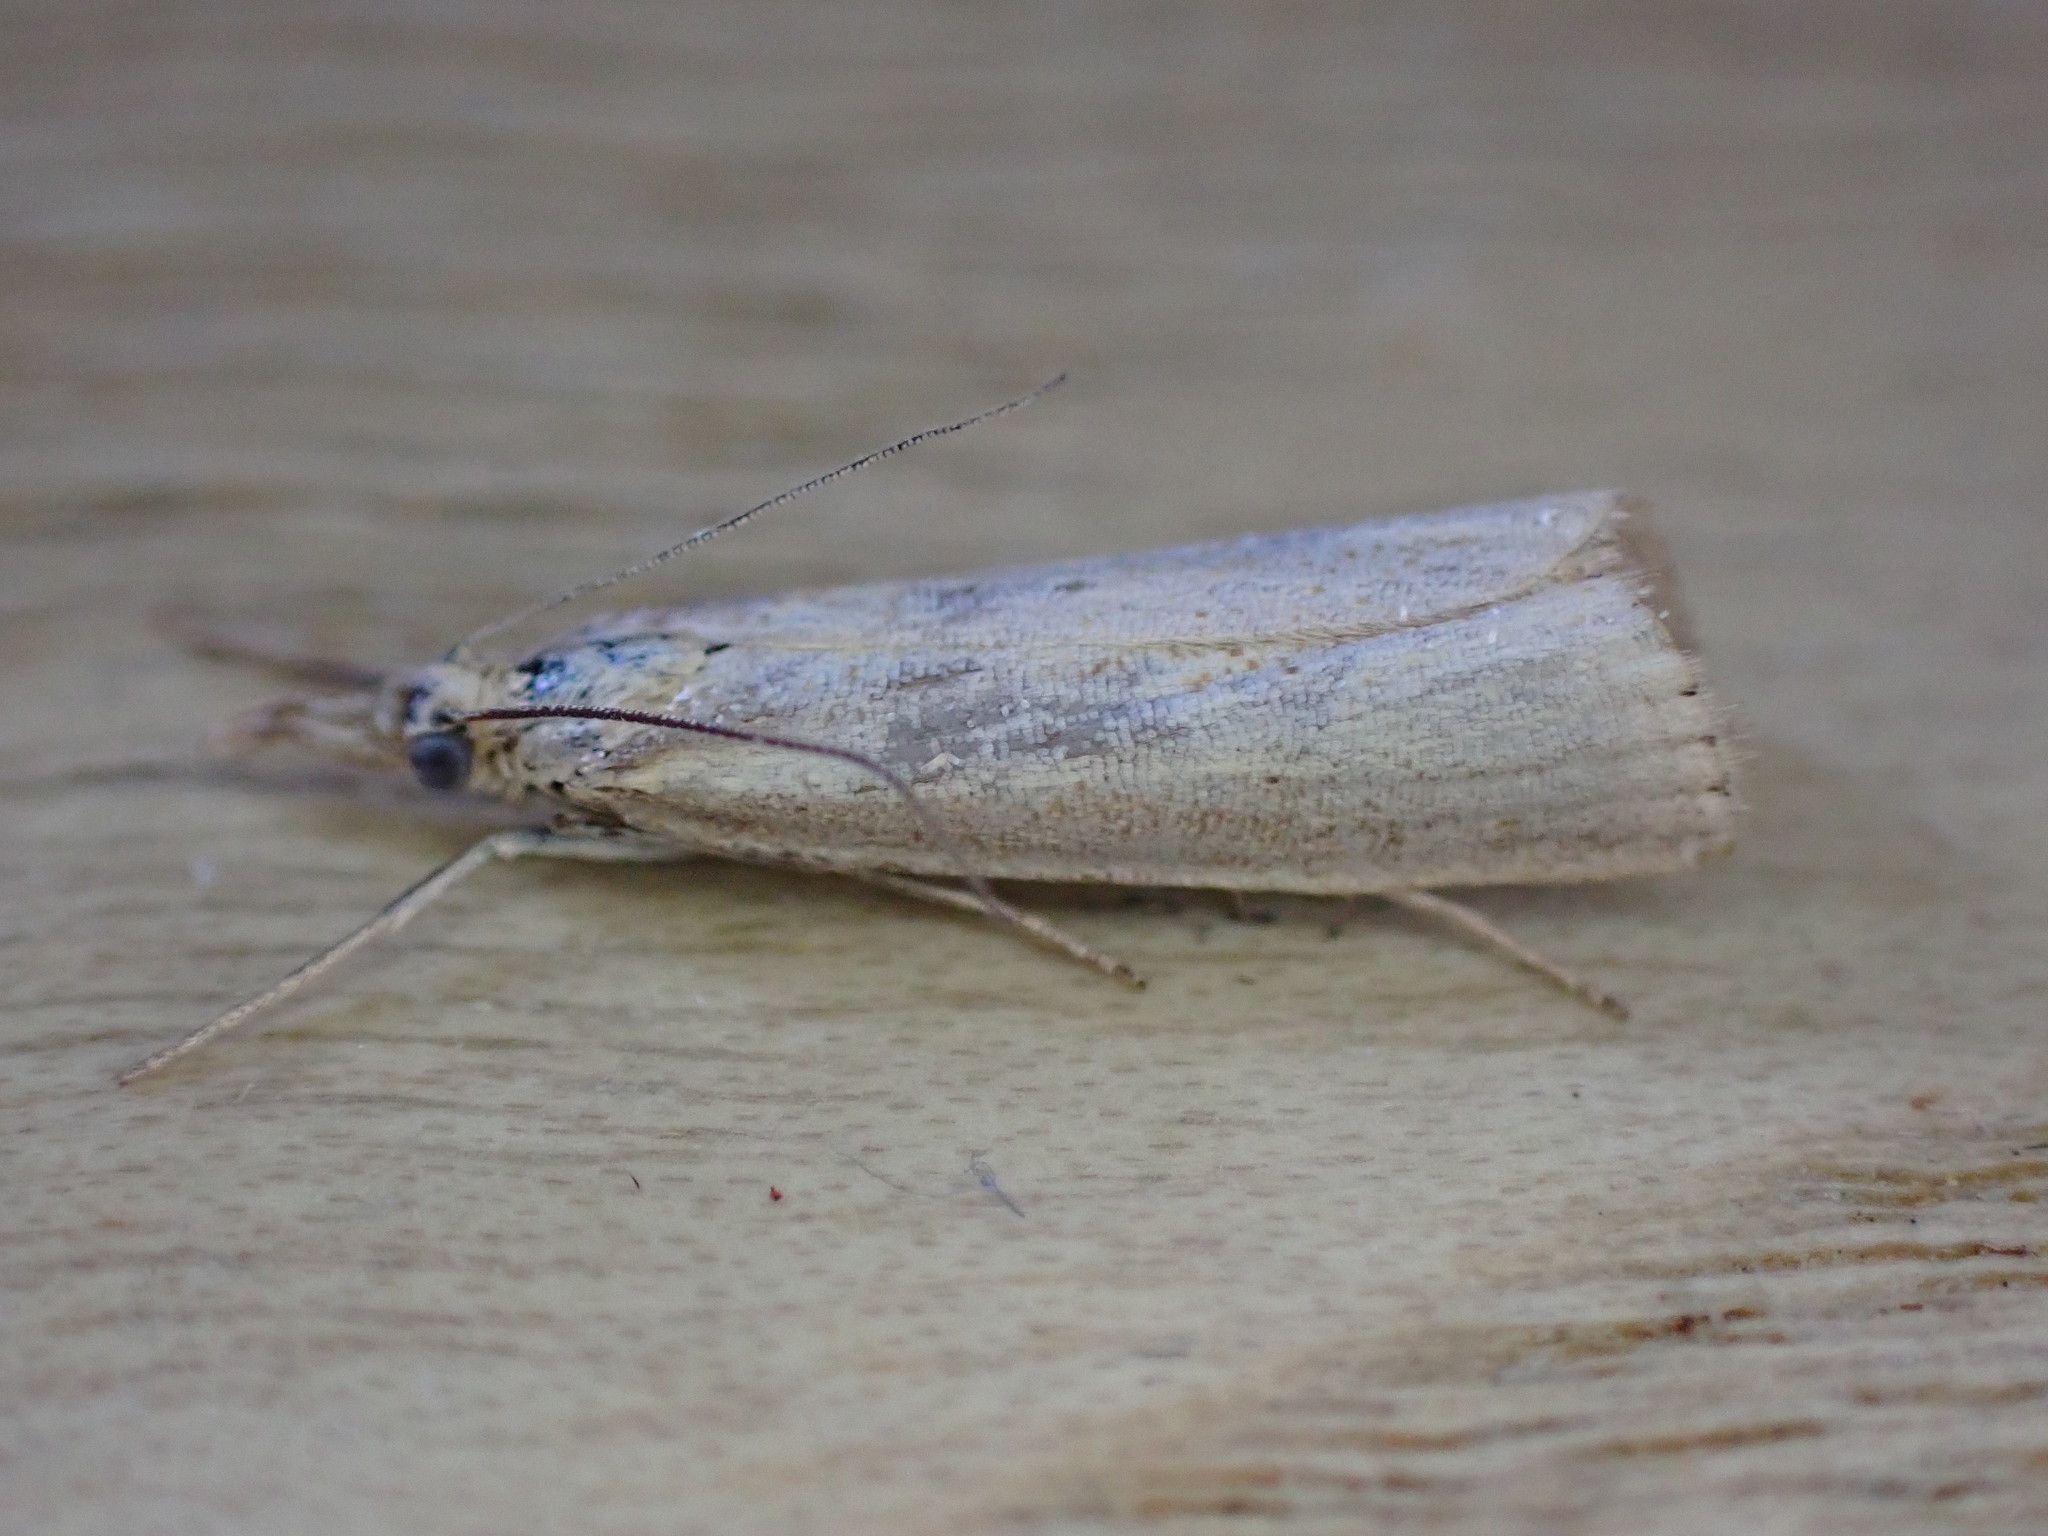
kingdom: Animalia
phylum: Arthropoda
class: Insecta
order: Lepidoptera
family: Crambidae
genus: Agriphila
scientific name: Agriphila straminella
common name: Straw grass-veneer
